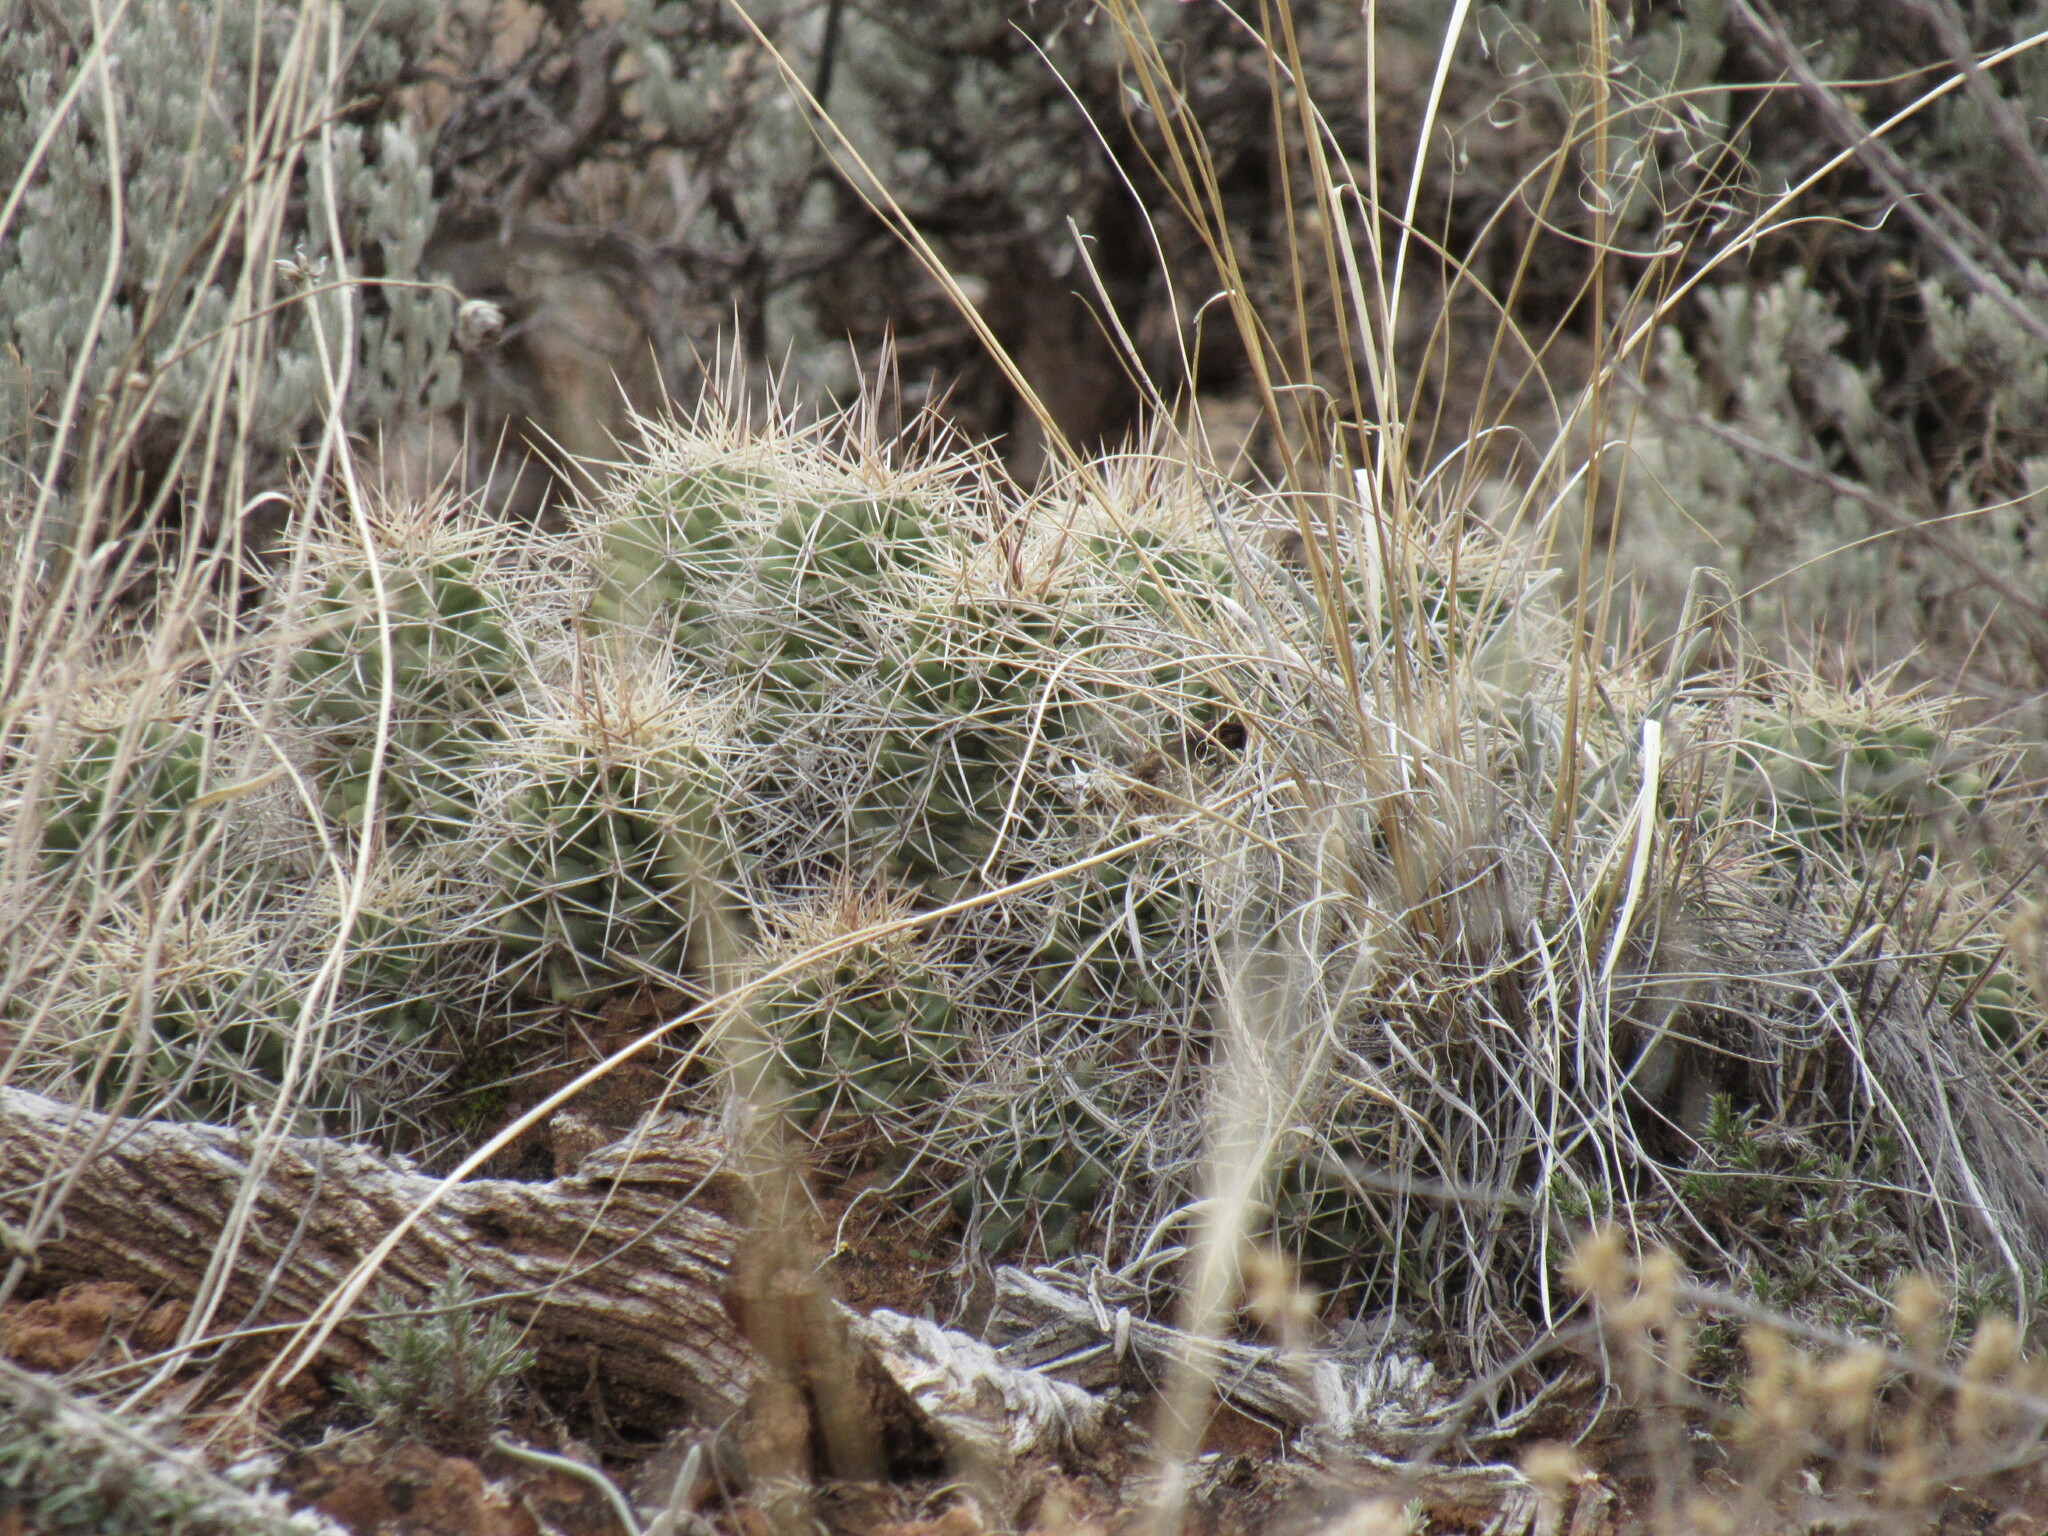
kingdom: Plantae
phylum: Tracheophyta
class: Magnoliopsida
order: Caryophyllales
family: Cactaceae
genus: Echinocereus
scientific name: Echinocereus triglochidiatus
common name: Claretcup hedgehog
